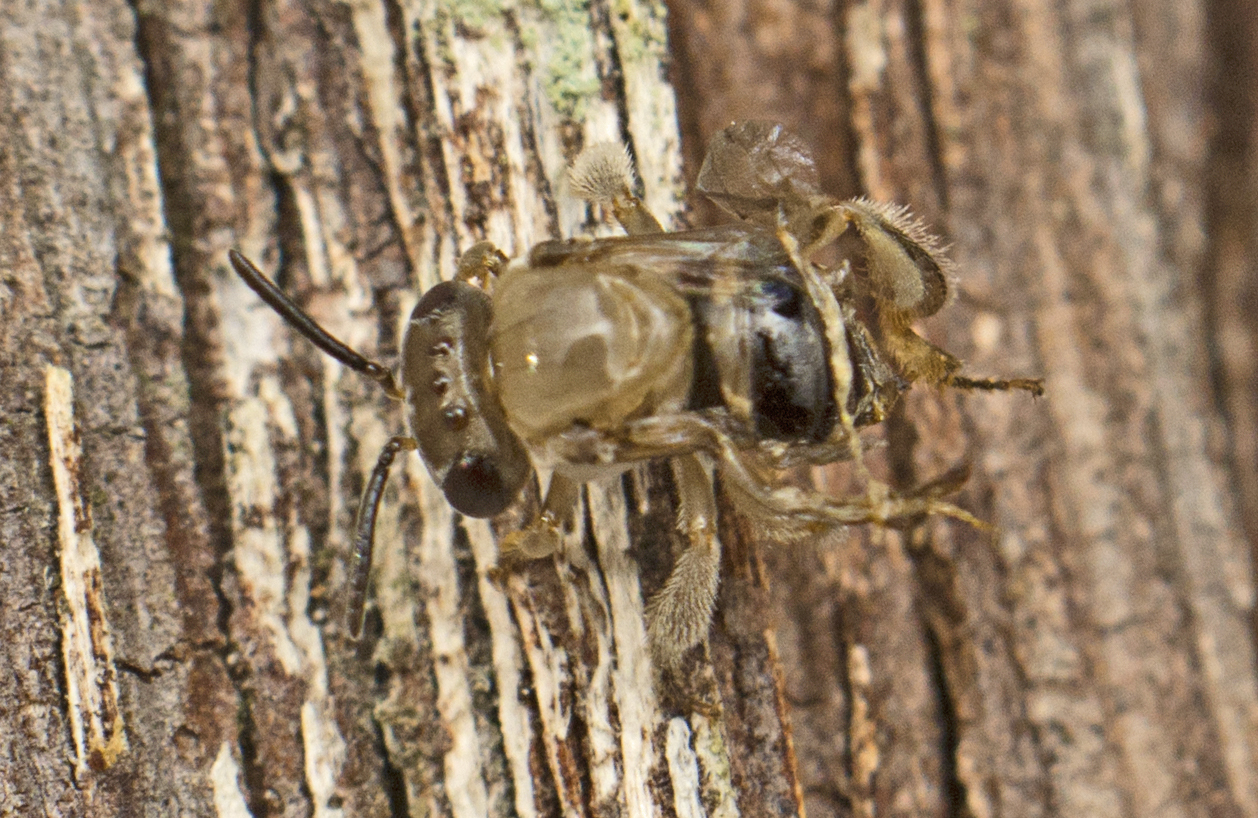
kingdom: Animalia
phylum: Arthropoda
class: Insecta
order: Hymenoptera
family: Apidae
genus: Tetragonula
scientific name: Tetragonula carbonaria
